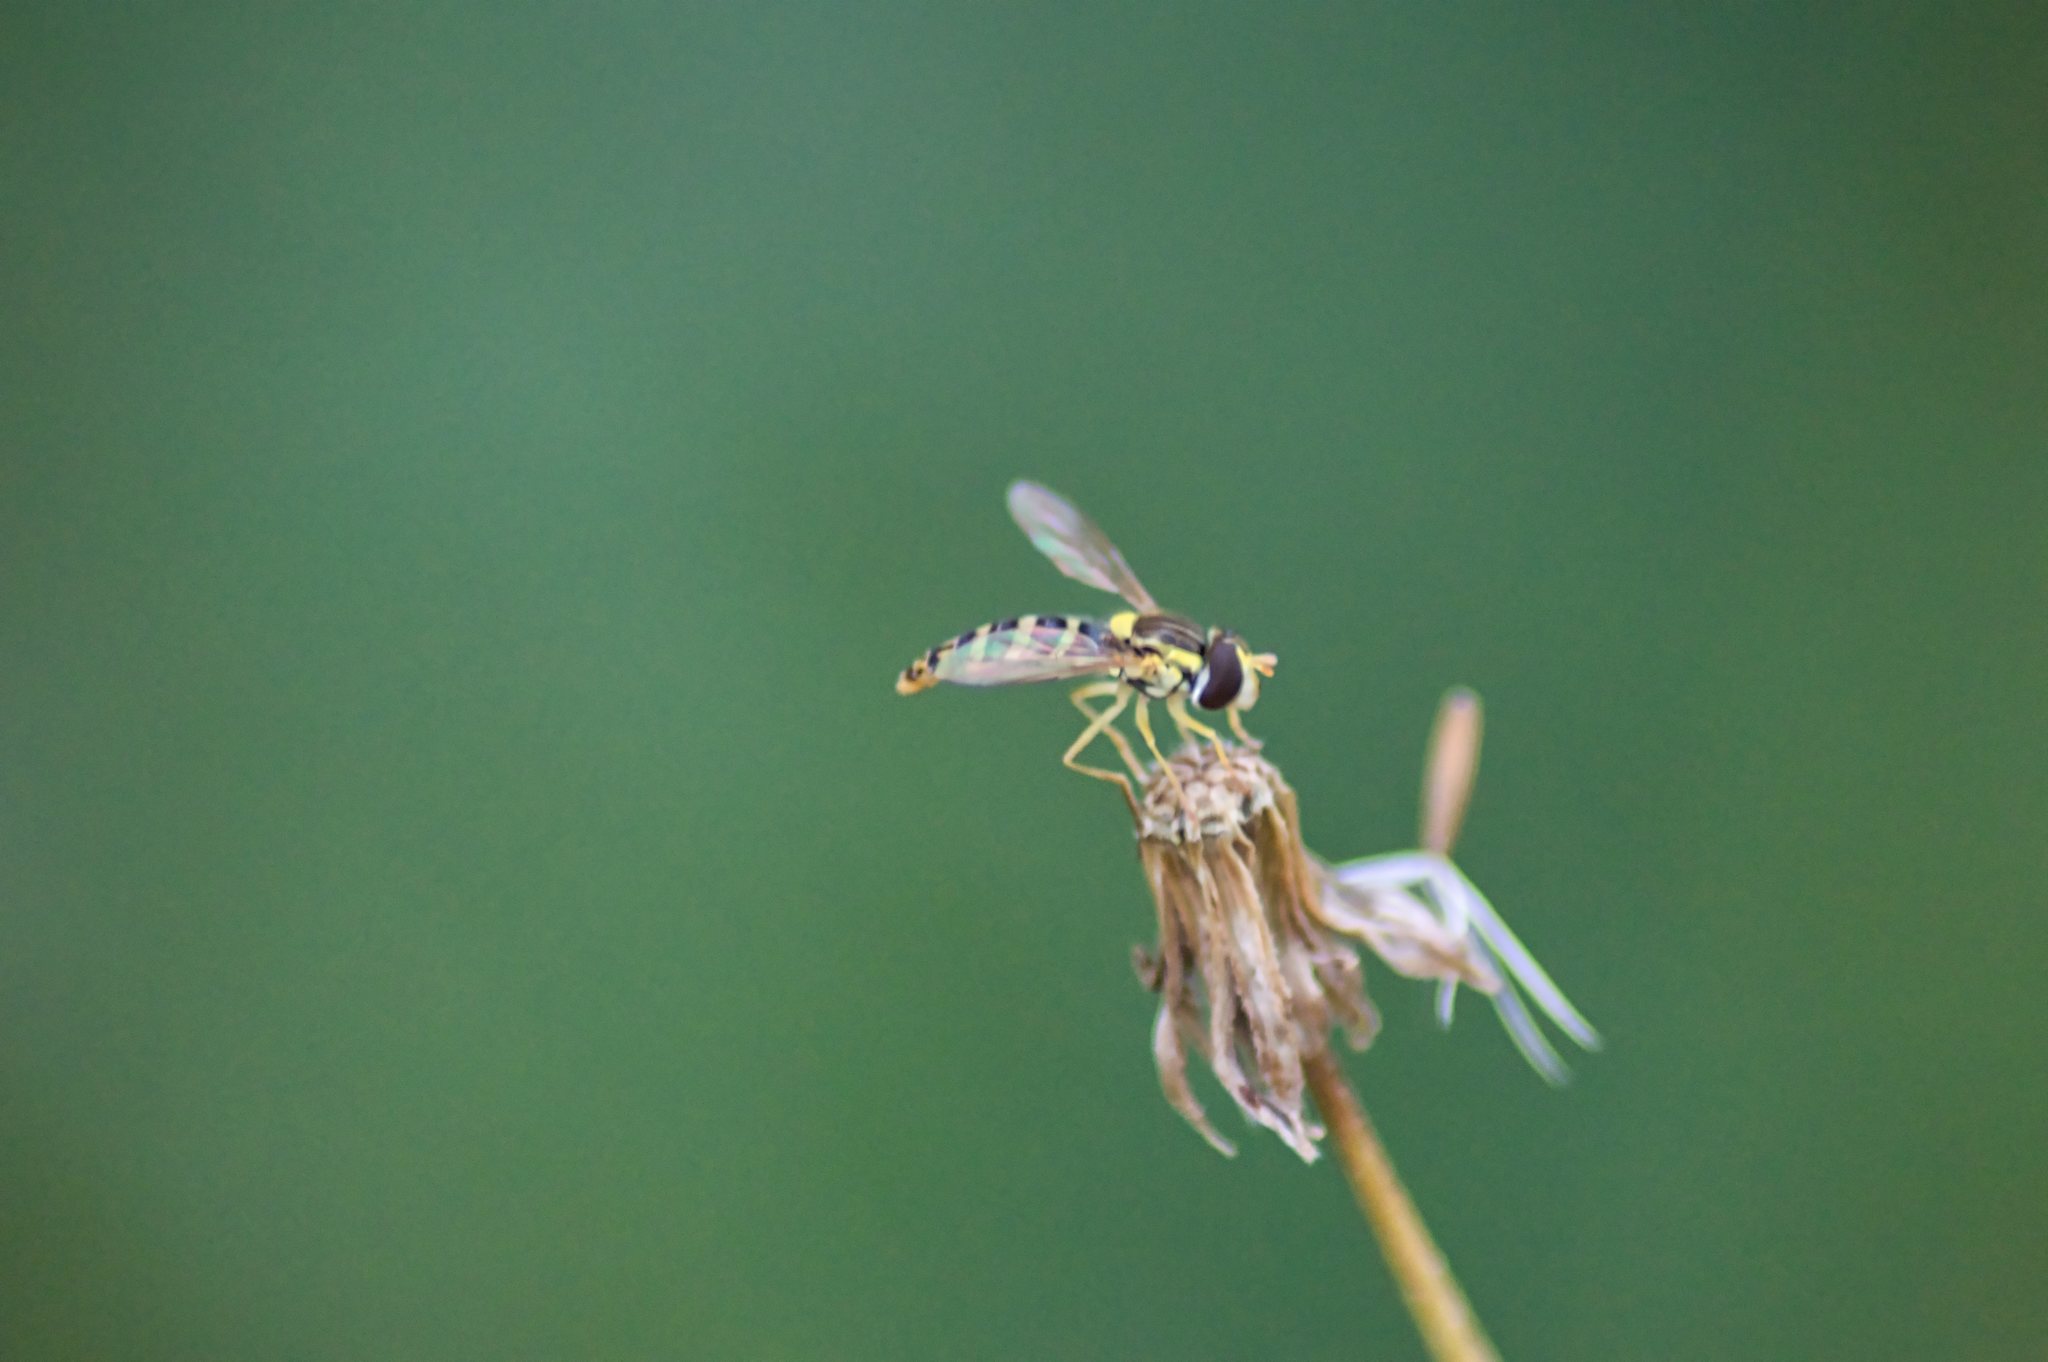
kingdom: Animalia
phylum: Arthropoda
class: Insecta
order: Diptera
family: Syrphidae
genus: Sphaerophoria
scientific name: Sphaerophoria
